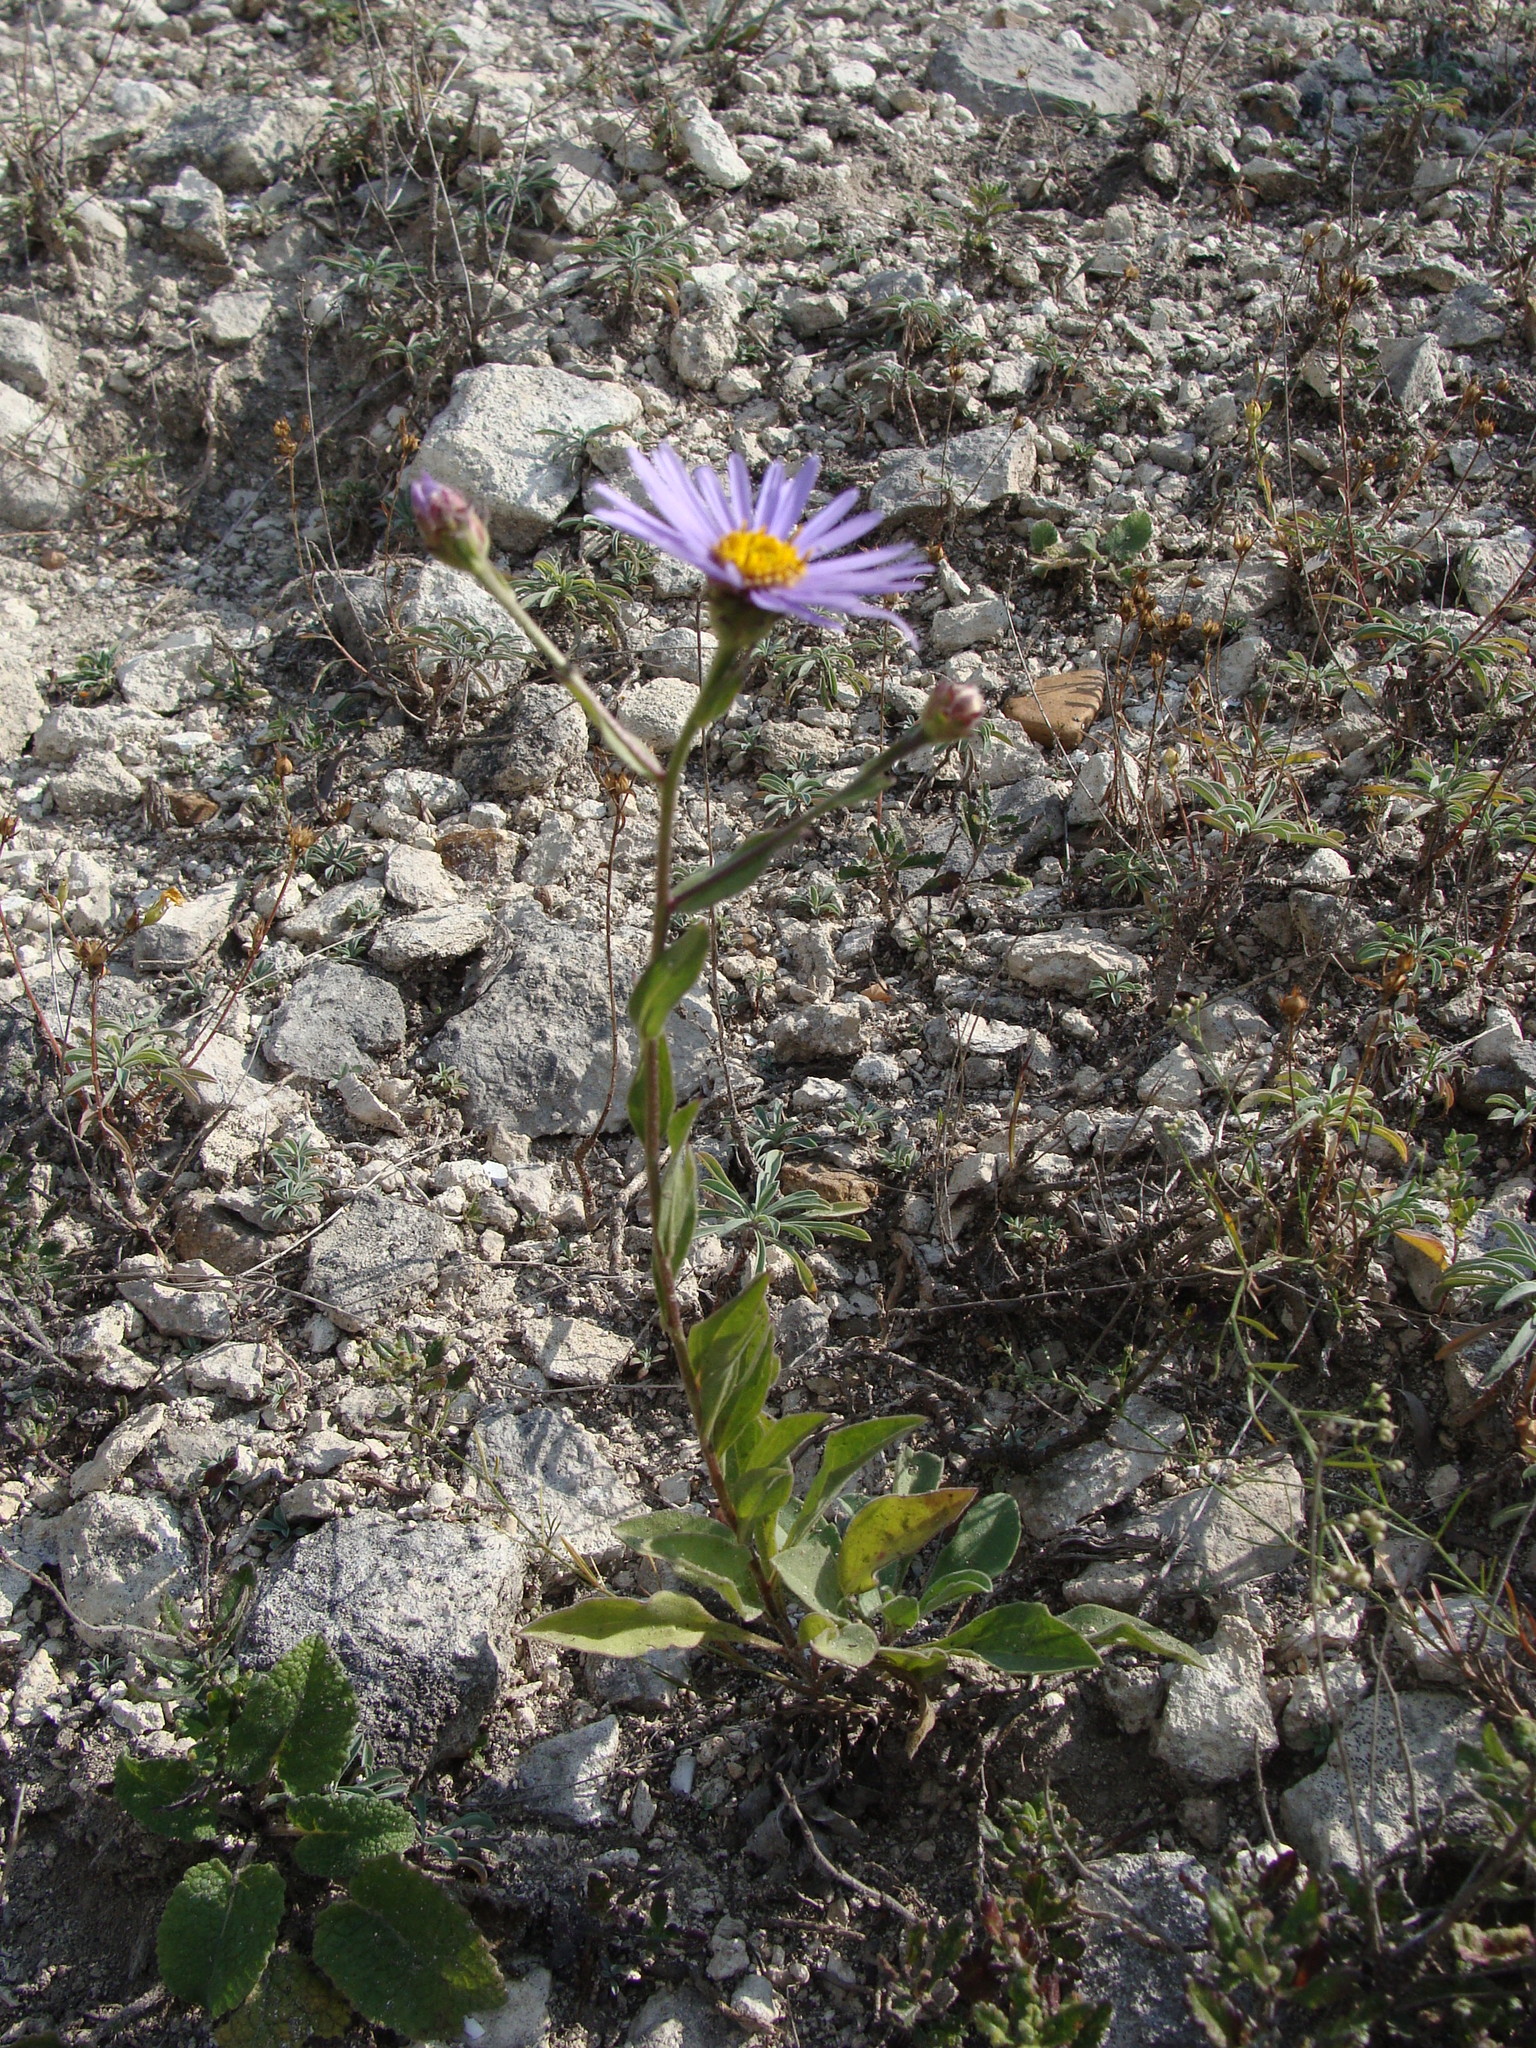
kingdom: Plantae
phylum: Tracheophyta
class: Magnoliopsida
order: Asterales
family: Asteraceae
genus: Aster
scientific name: Aster amellus
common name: European michaelmas daisy
